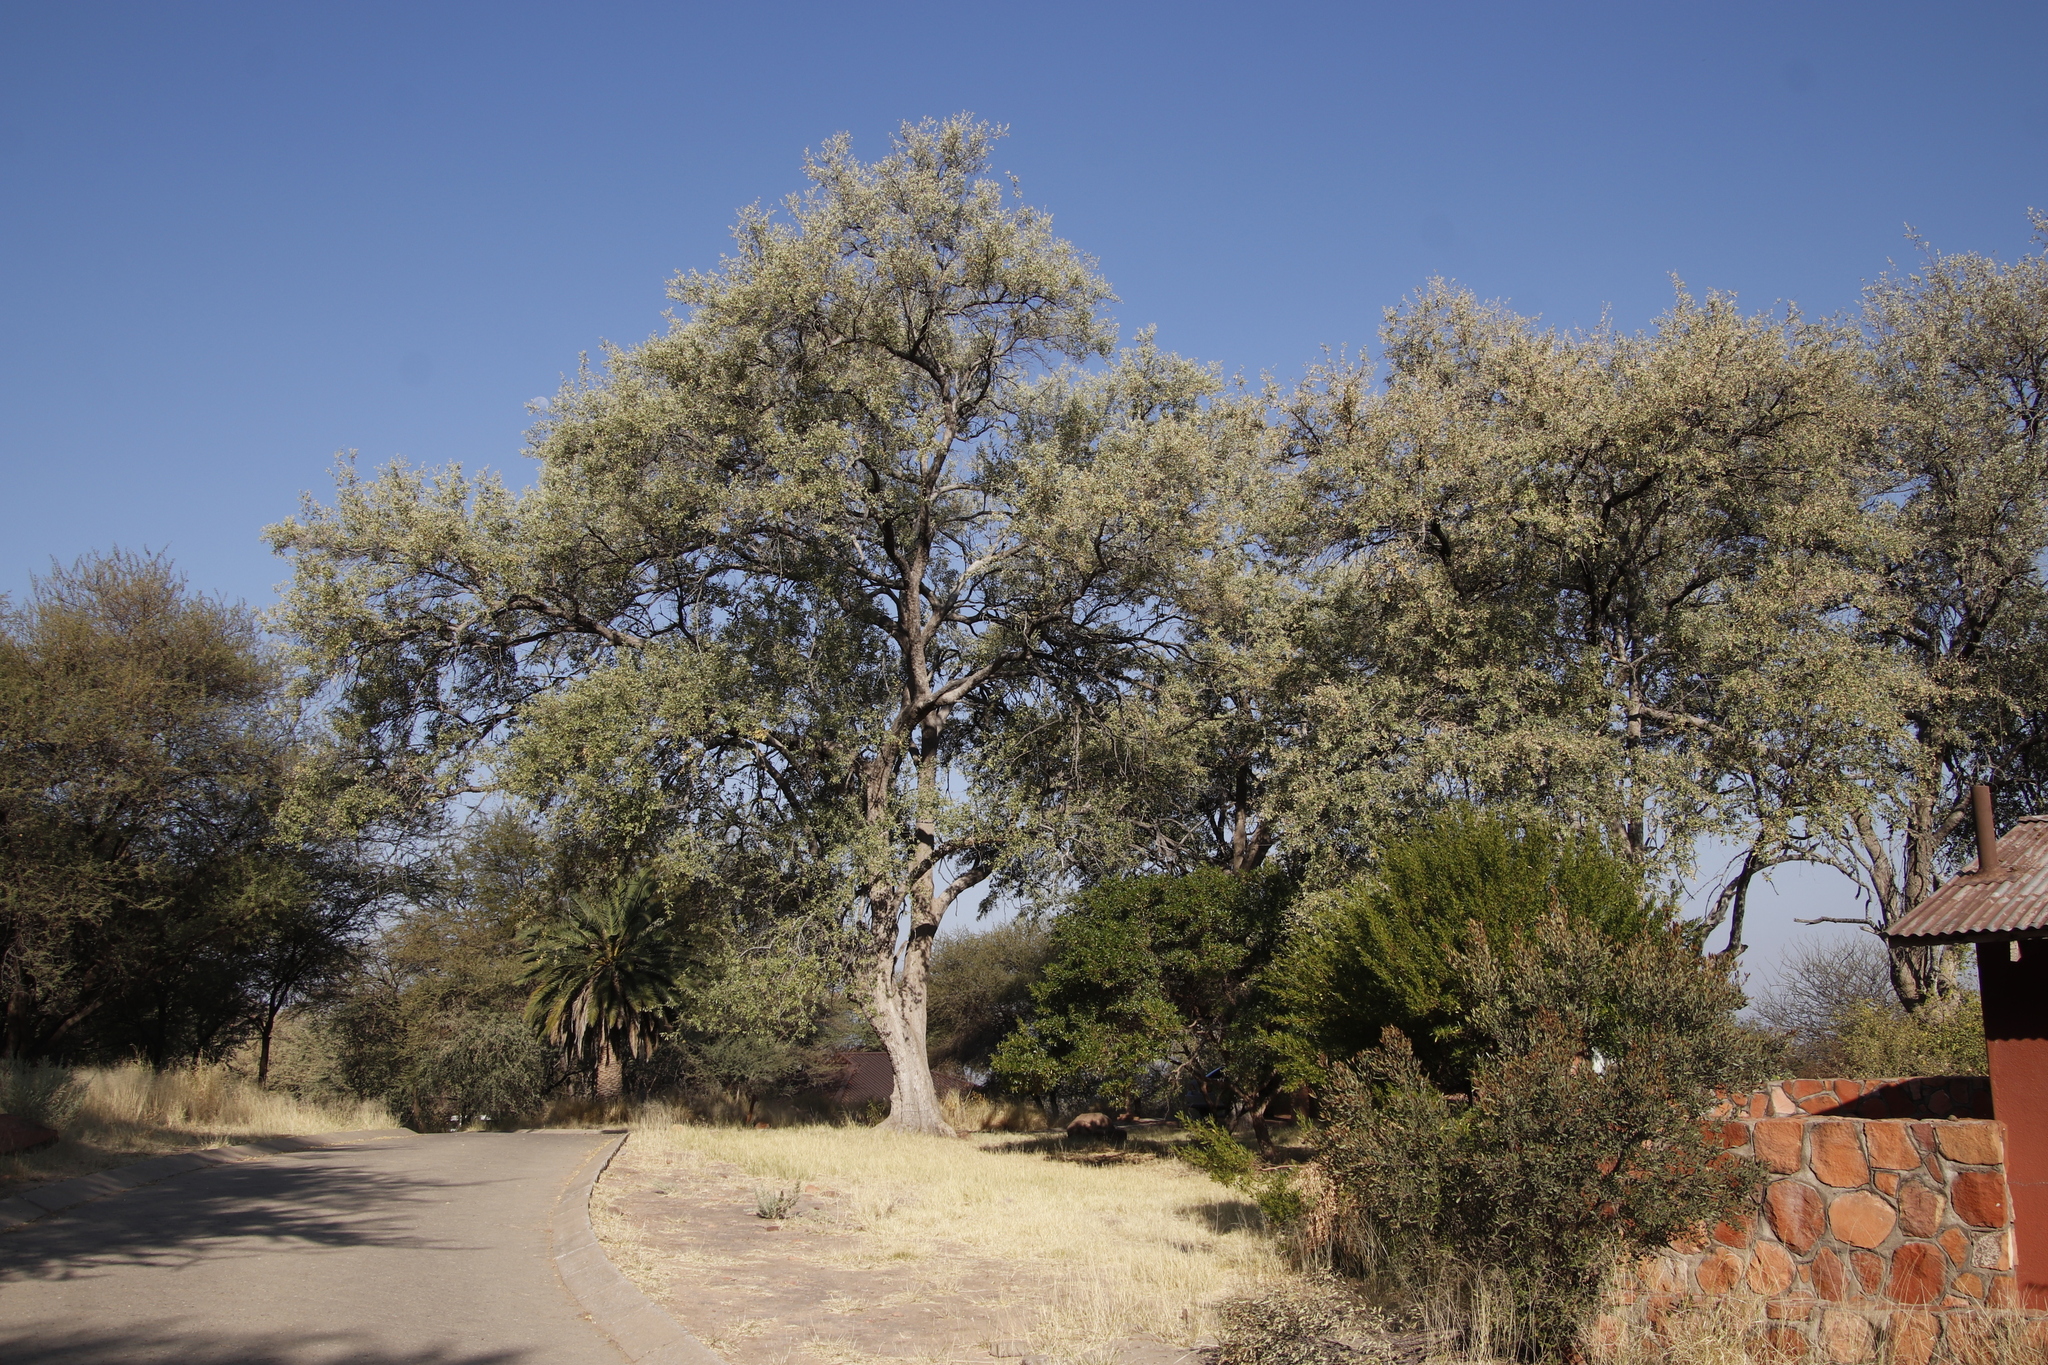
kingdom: Plantae
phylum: Tracheophyta
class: Magnoliopsida
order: Myrtales
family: Combretaceae
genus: Combretum
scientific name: Combretum imberbe
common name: Leadwood
